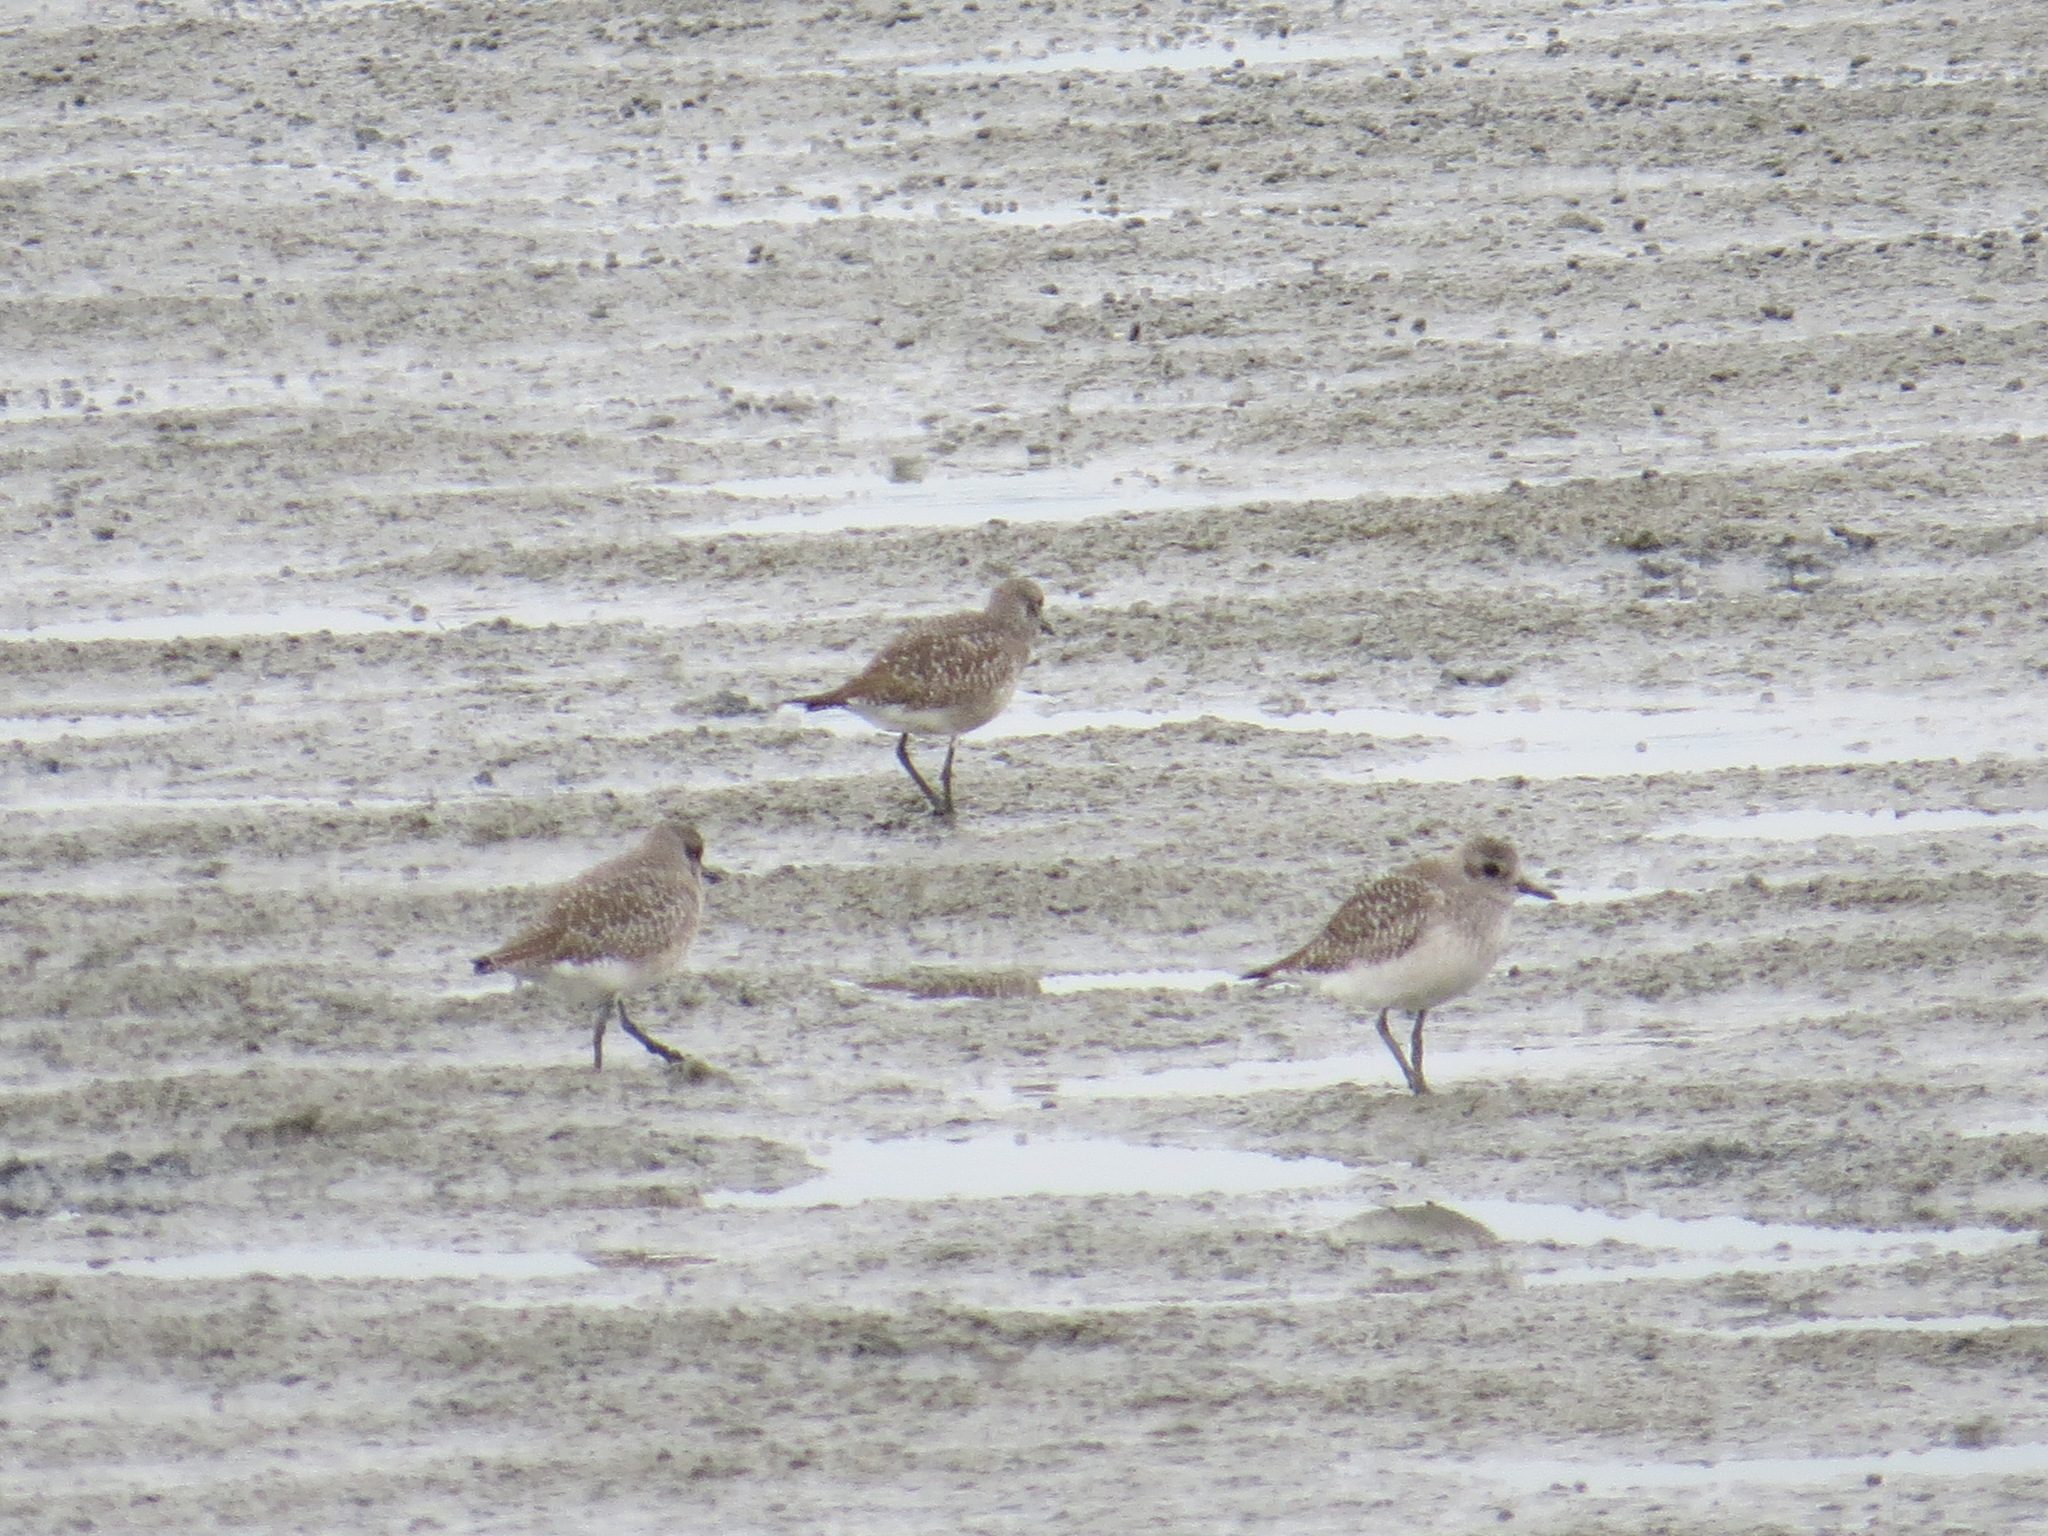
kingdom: Animalia
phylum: Chordata
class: Aves
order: Charadriiformes
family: Charadriidae
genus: Pluvialis
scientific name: Pluvialis squatarola
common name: Grey plover
